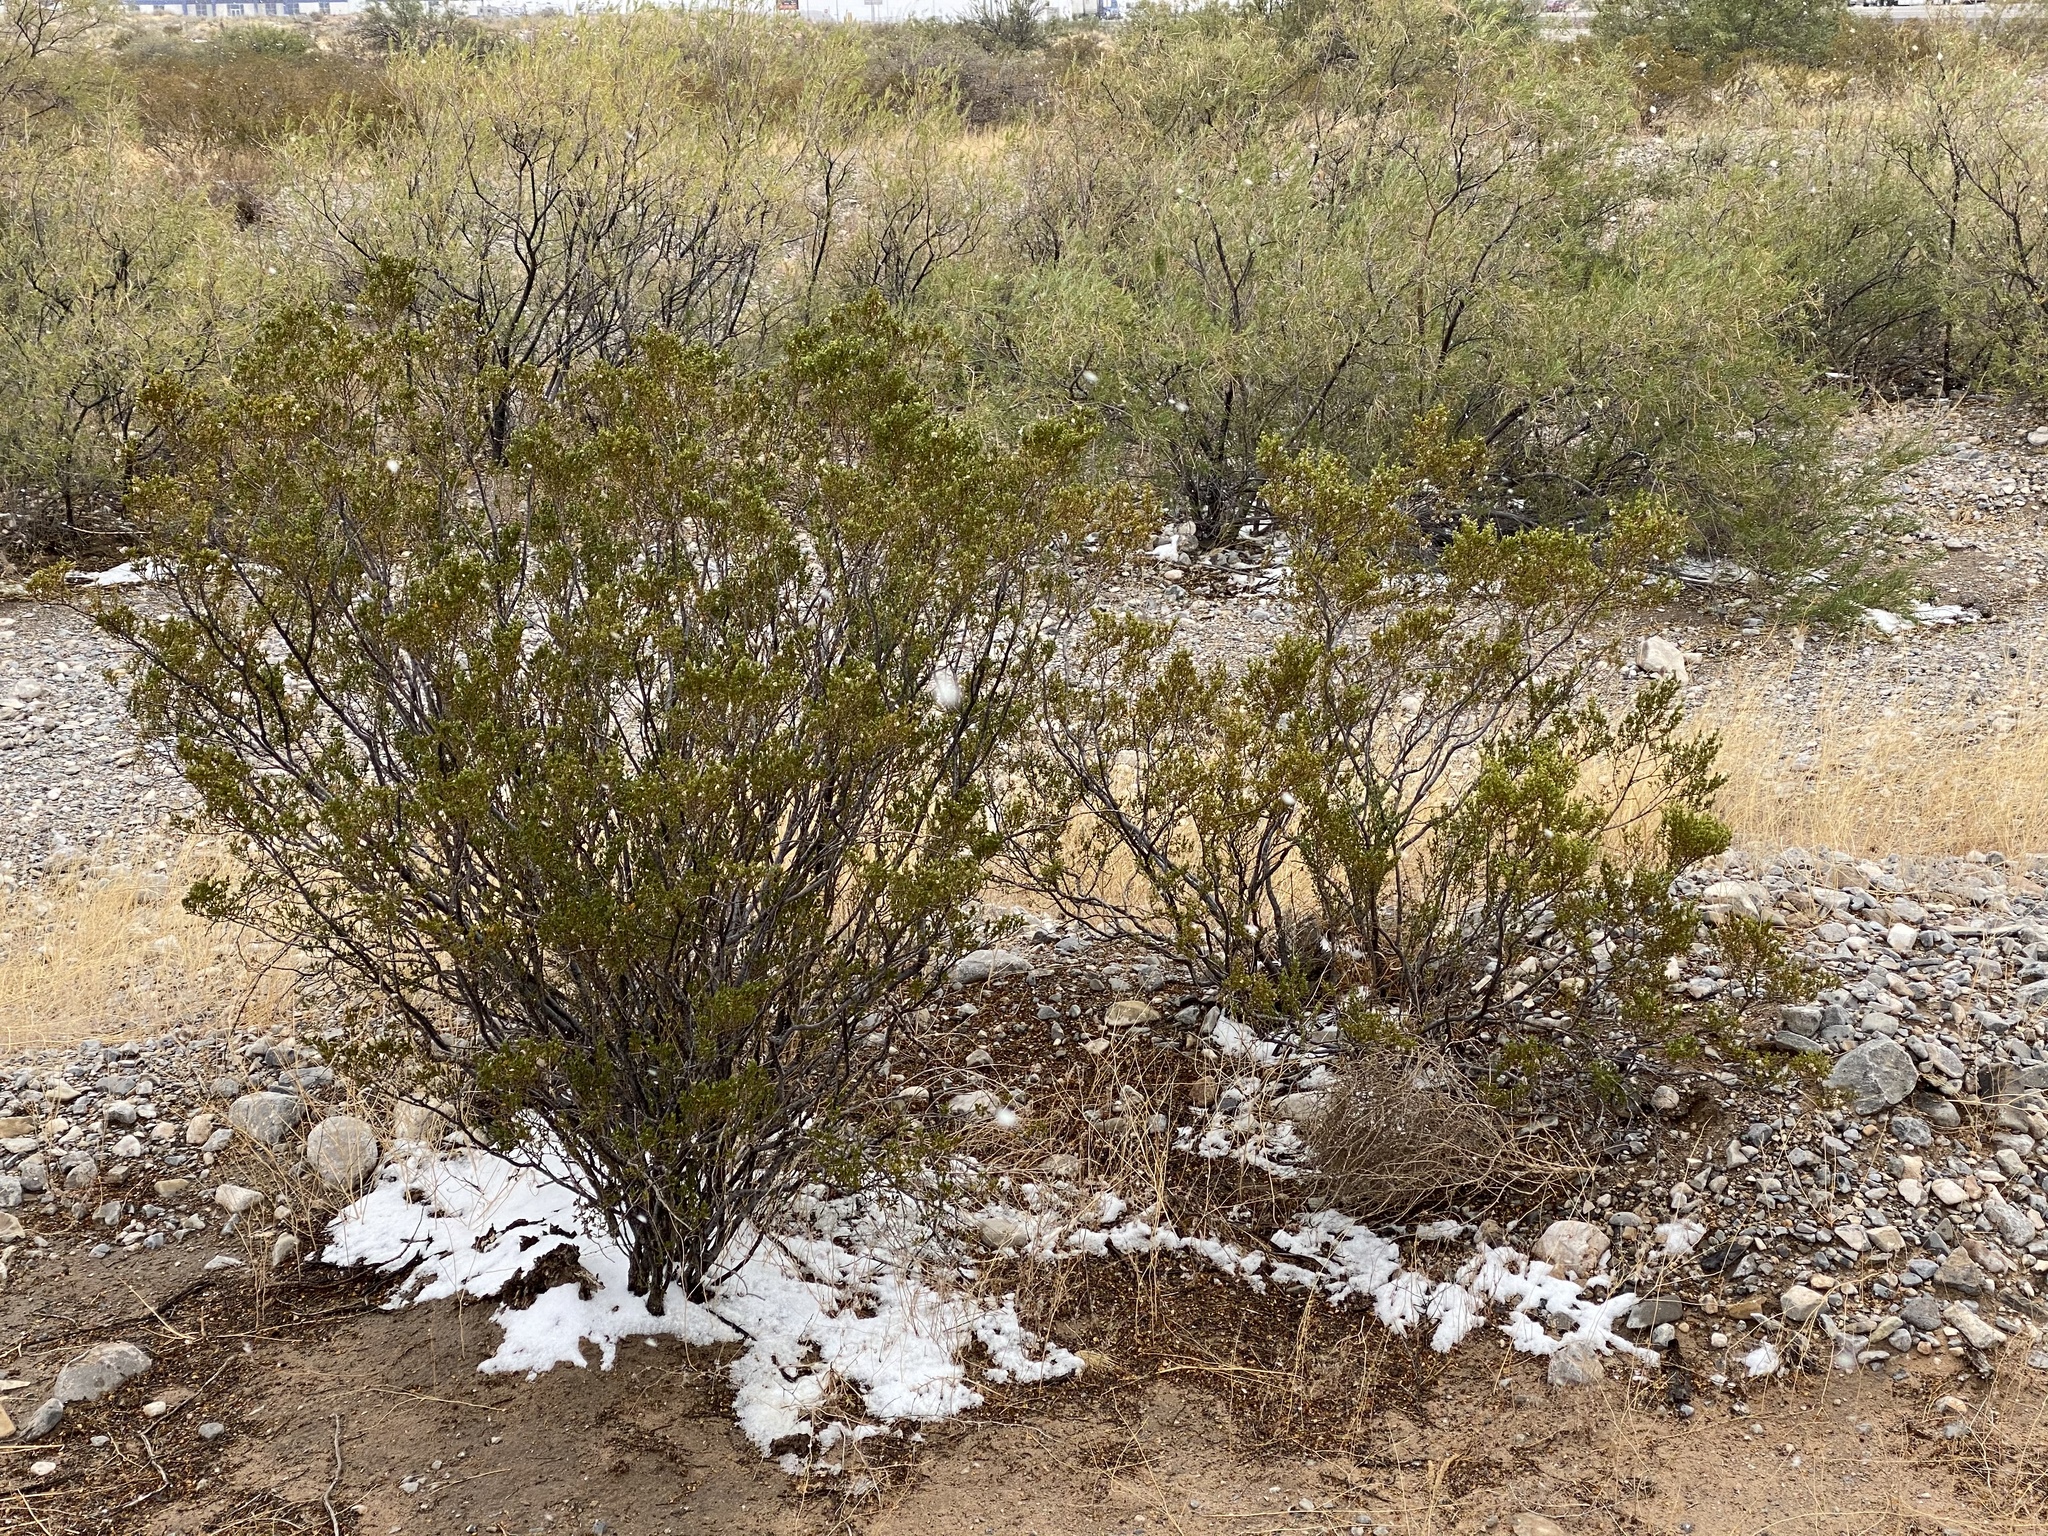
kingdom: Plantae
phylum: Tracheophyta
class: Magnoliopsida
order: Zygophyllales
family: Zygophyllaceae
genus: Larrea
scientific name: Larrea tridentata
